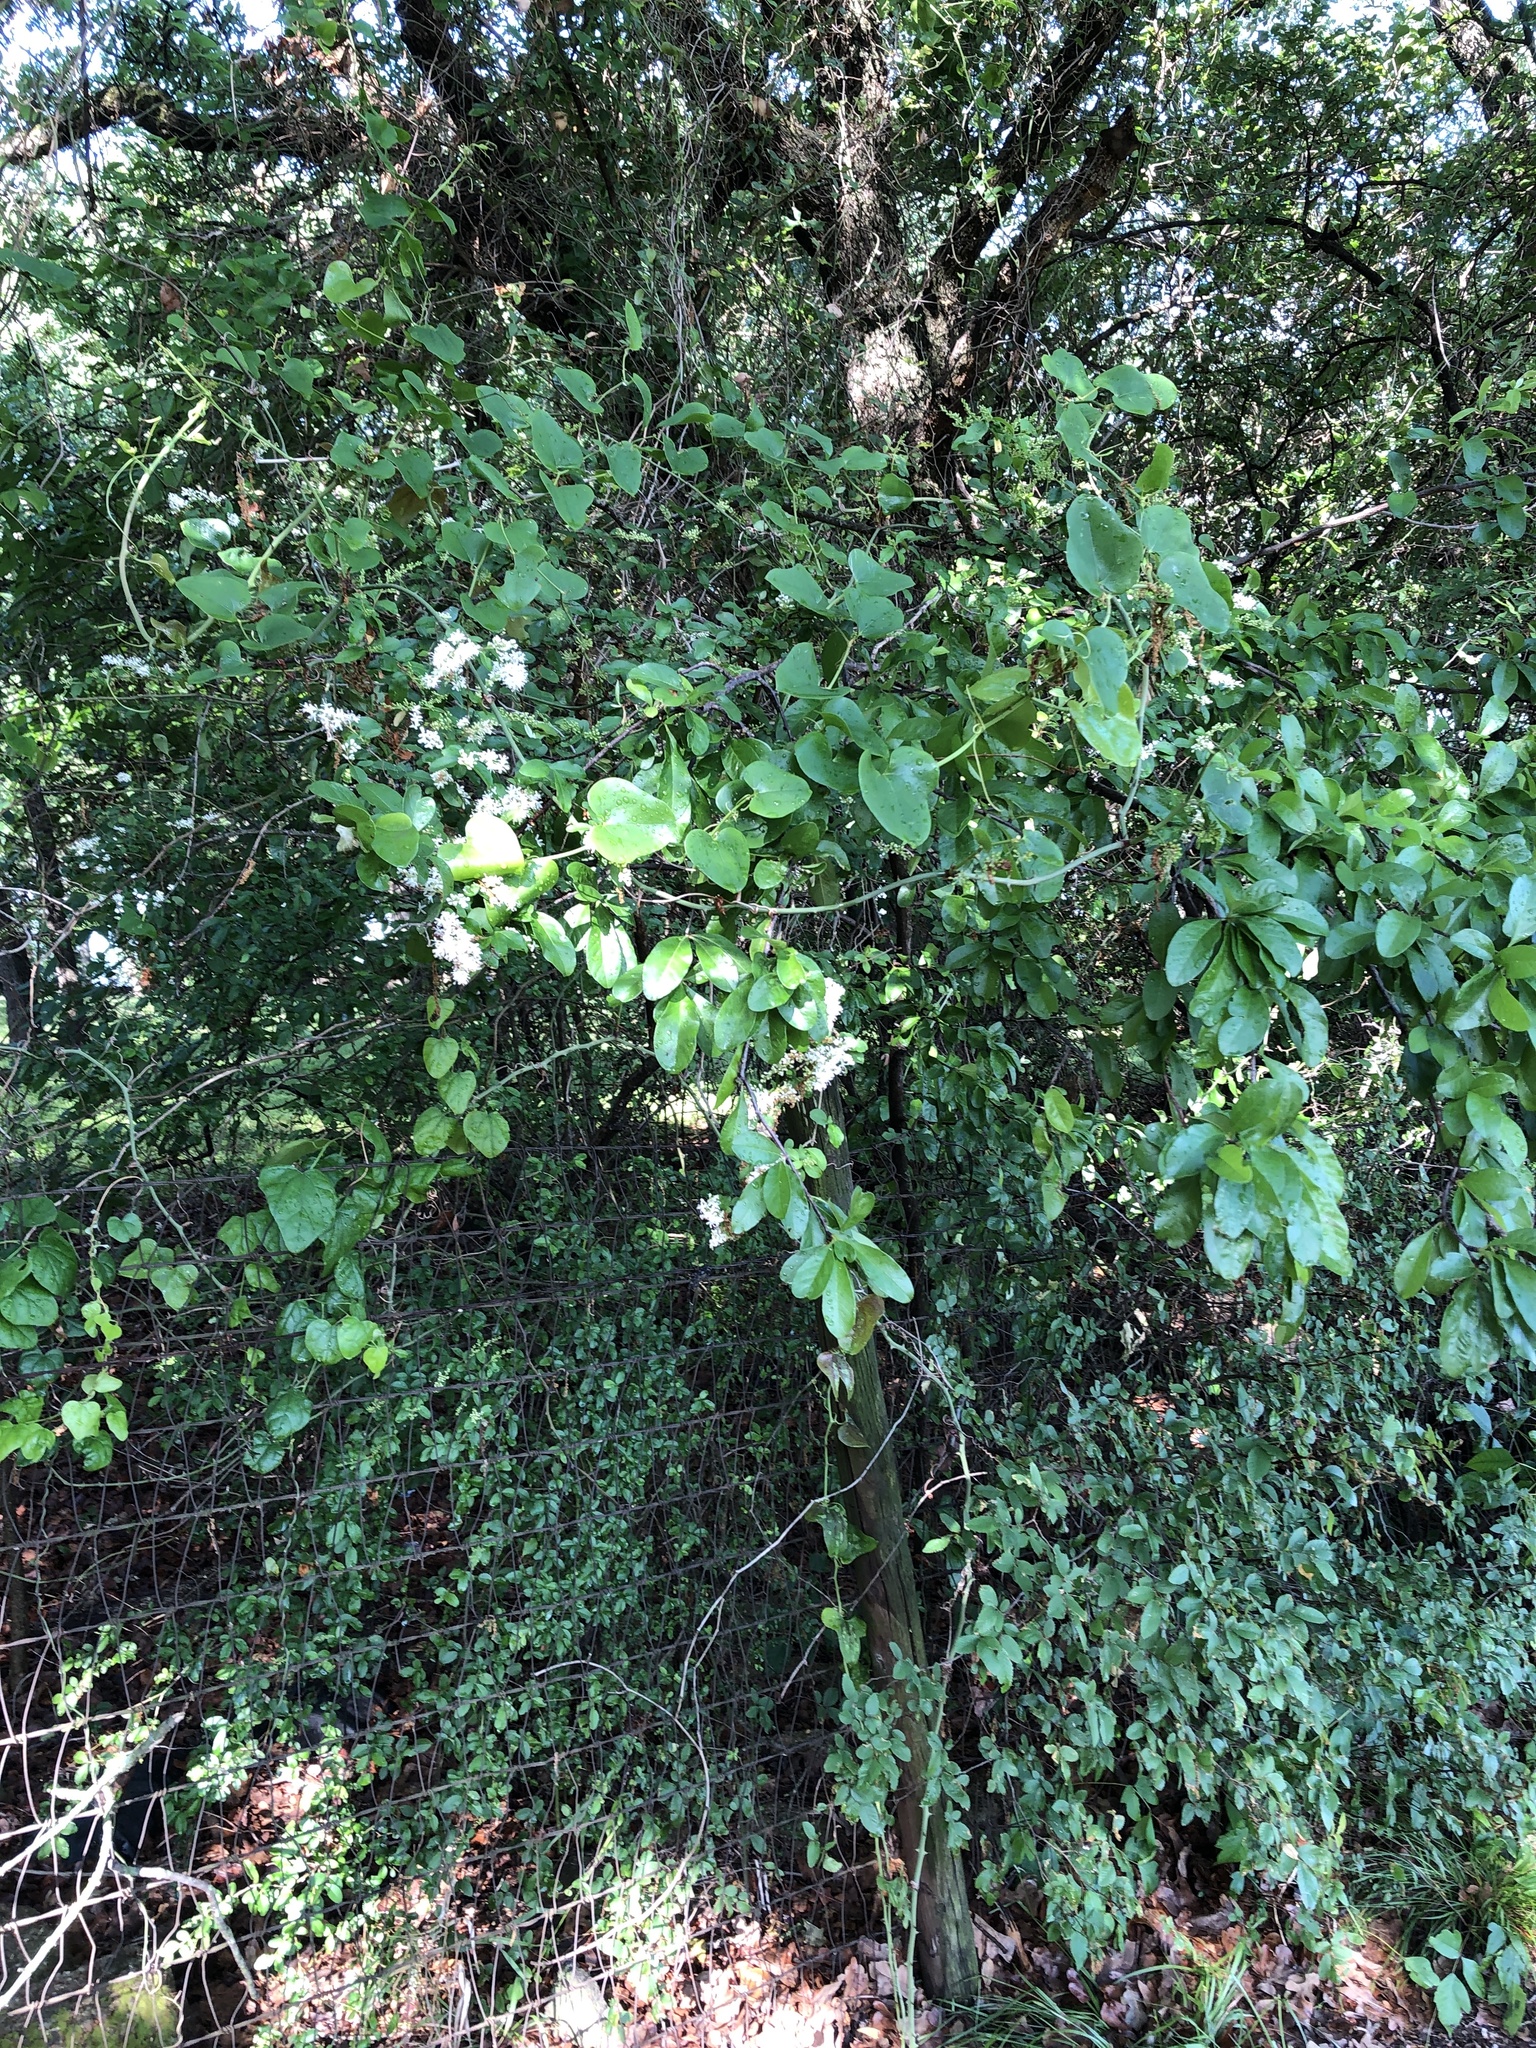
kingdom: Plantae
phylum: Tracheophyta
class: Magnoliopsida
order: Lamiales
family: Oleaceae
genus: Ligustrum
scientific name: Ligustrum sinense
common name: Chinese privet
